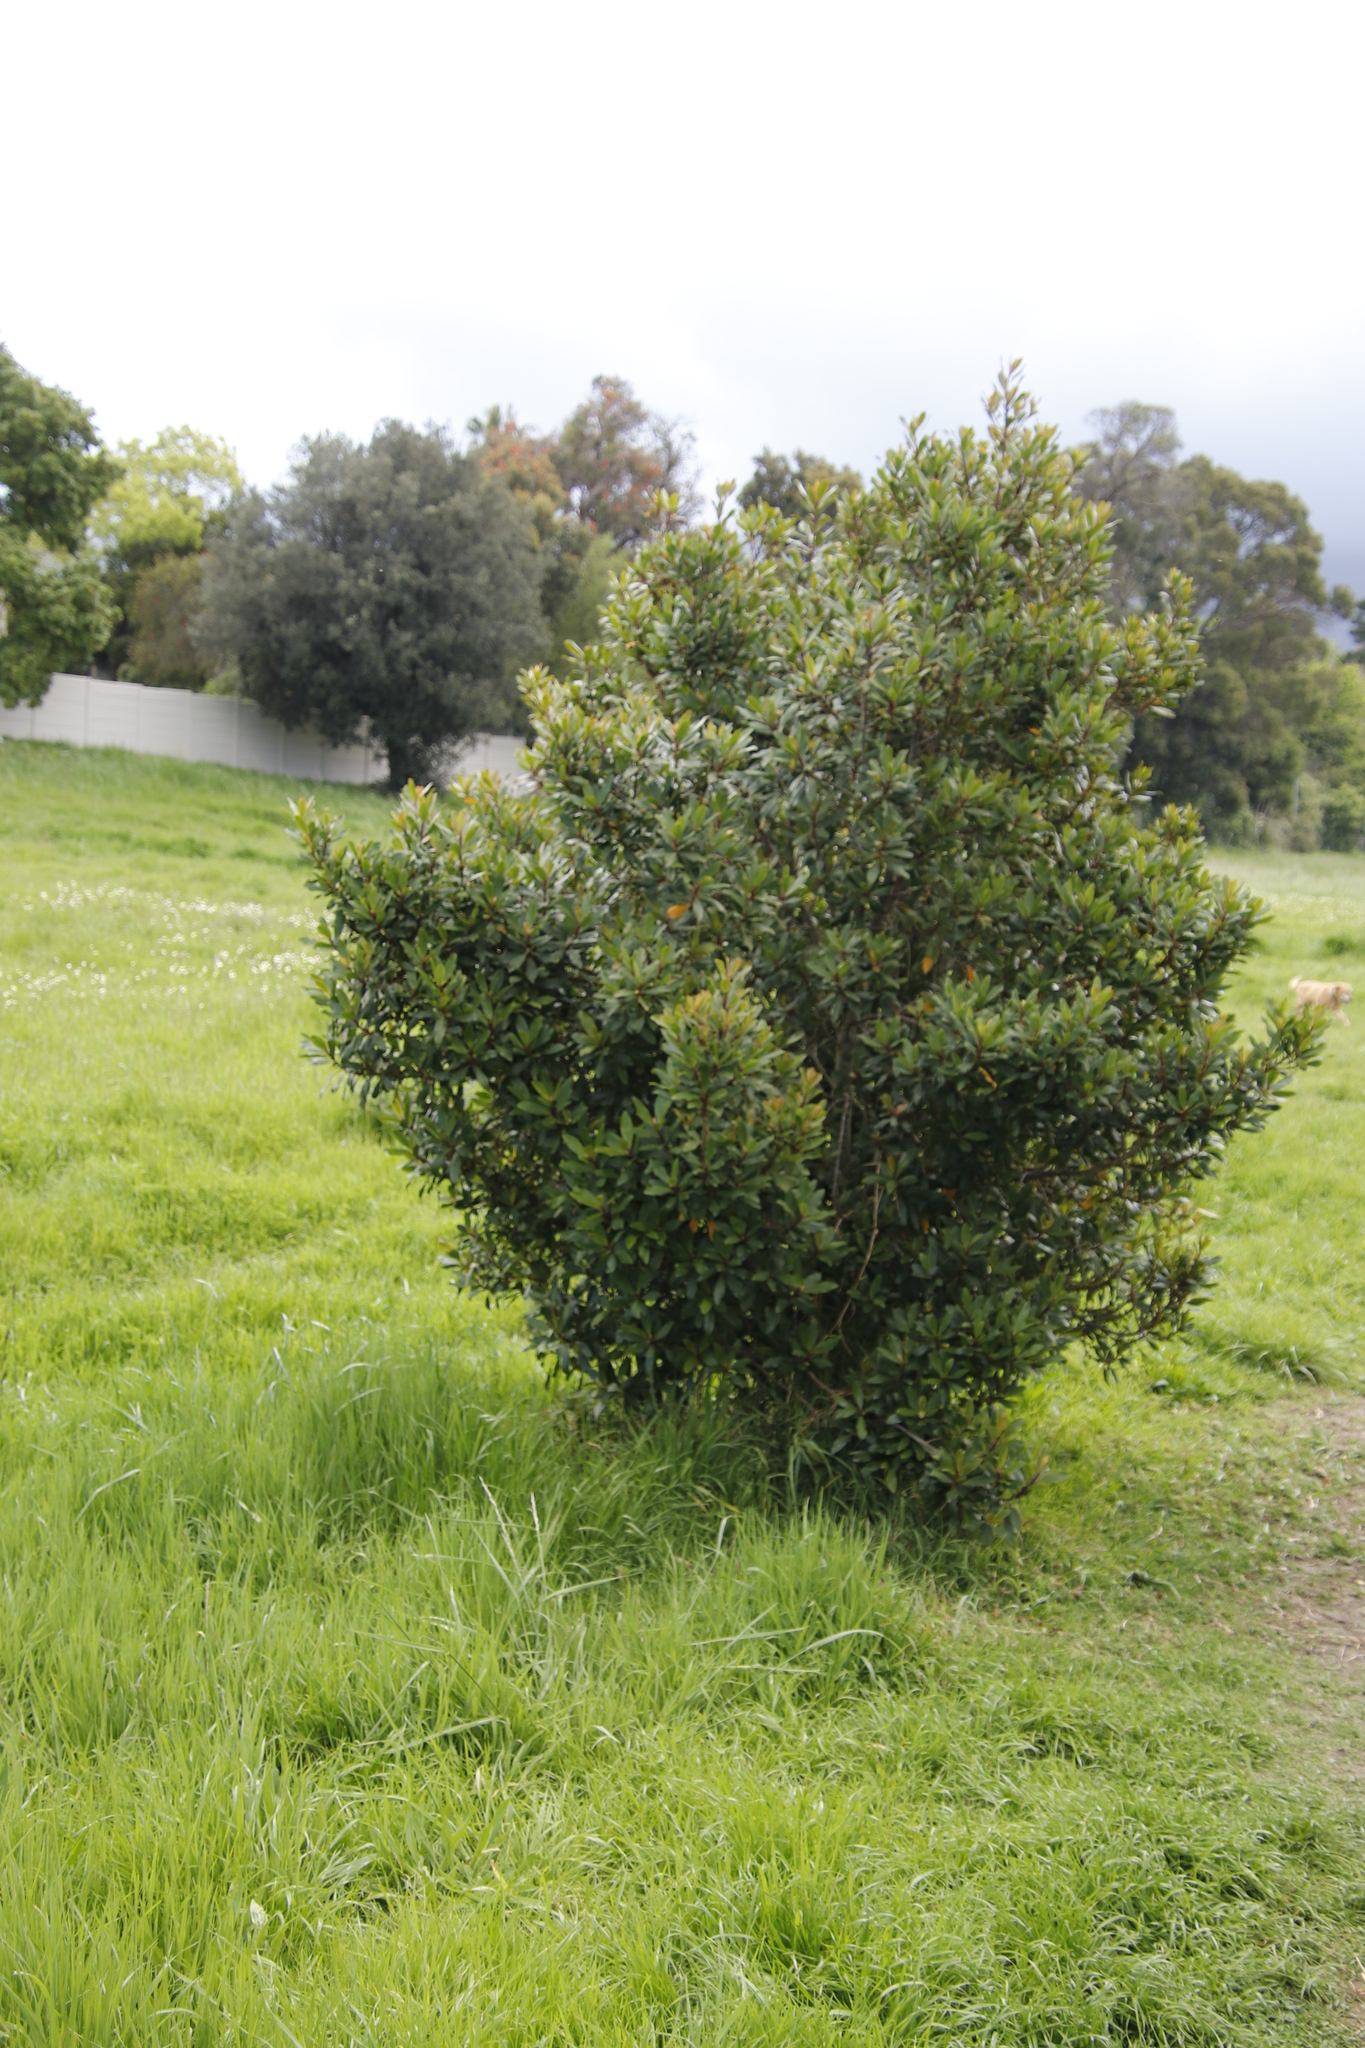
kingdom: Plantae
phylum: Tracheophyta
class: Magnoliopsida
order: Ericales
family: Primulaceae
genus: Myrsine
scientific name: Myrsine melanophloeos
